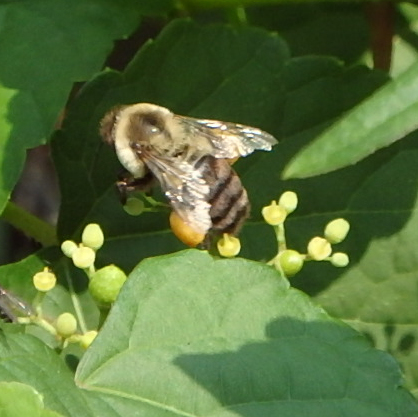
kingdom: Animalia
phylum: Arthropoda
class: Insecta
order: Hymenoptera
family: Apidae
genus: Bombus
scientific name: Bombus impatiens
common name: Common eastern bumble bee
